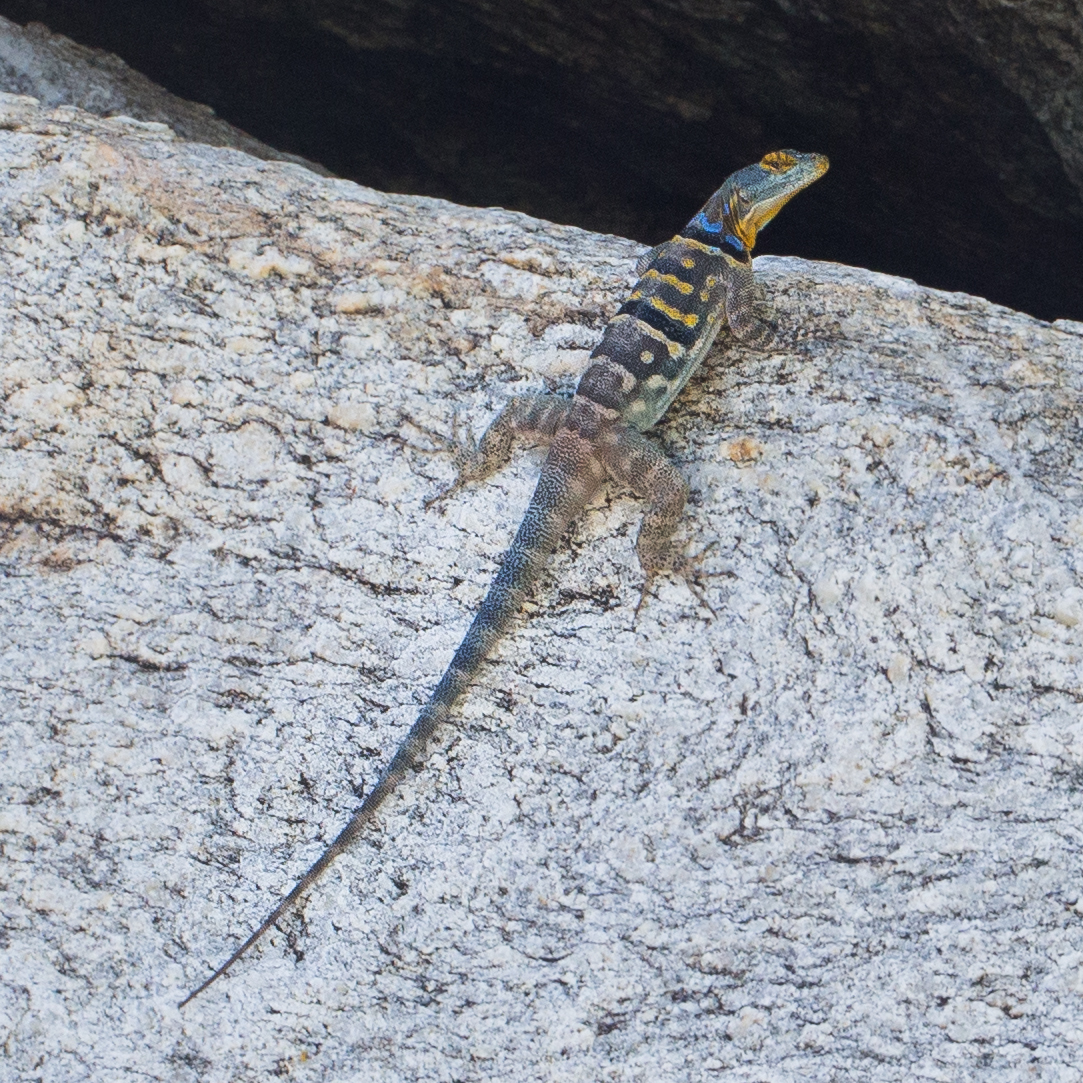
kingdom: Animalia
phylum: Chordata
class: Squamata
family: Phrynosomatidae
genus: Petrosaurus
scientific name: Petrosaurus thalassinus
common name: Baja california rock lizard
